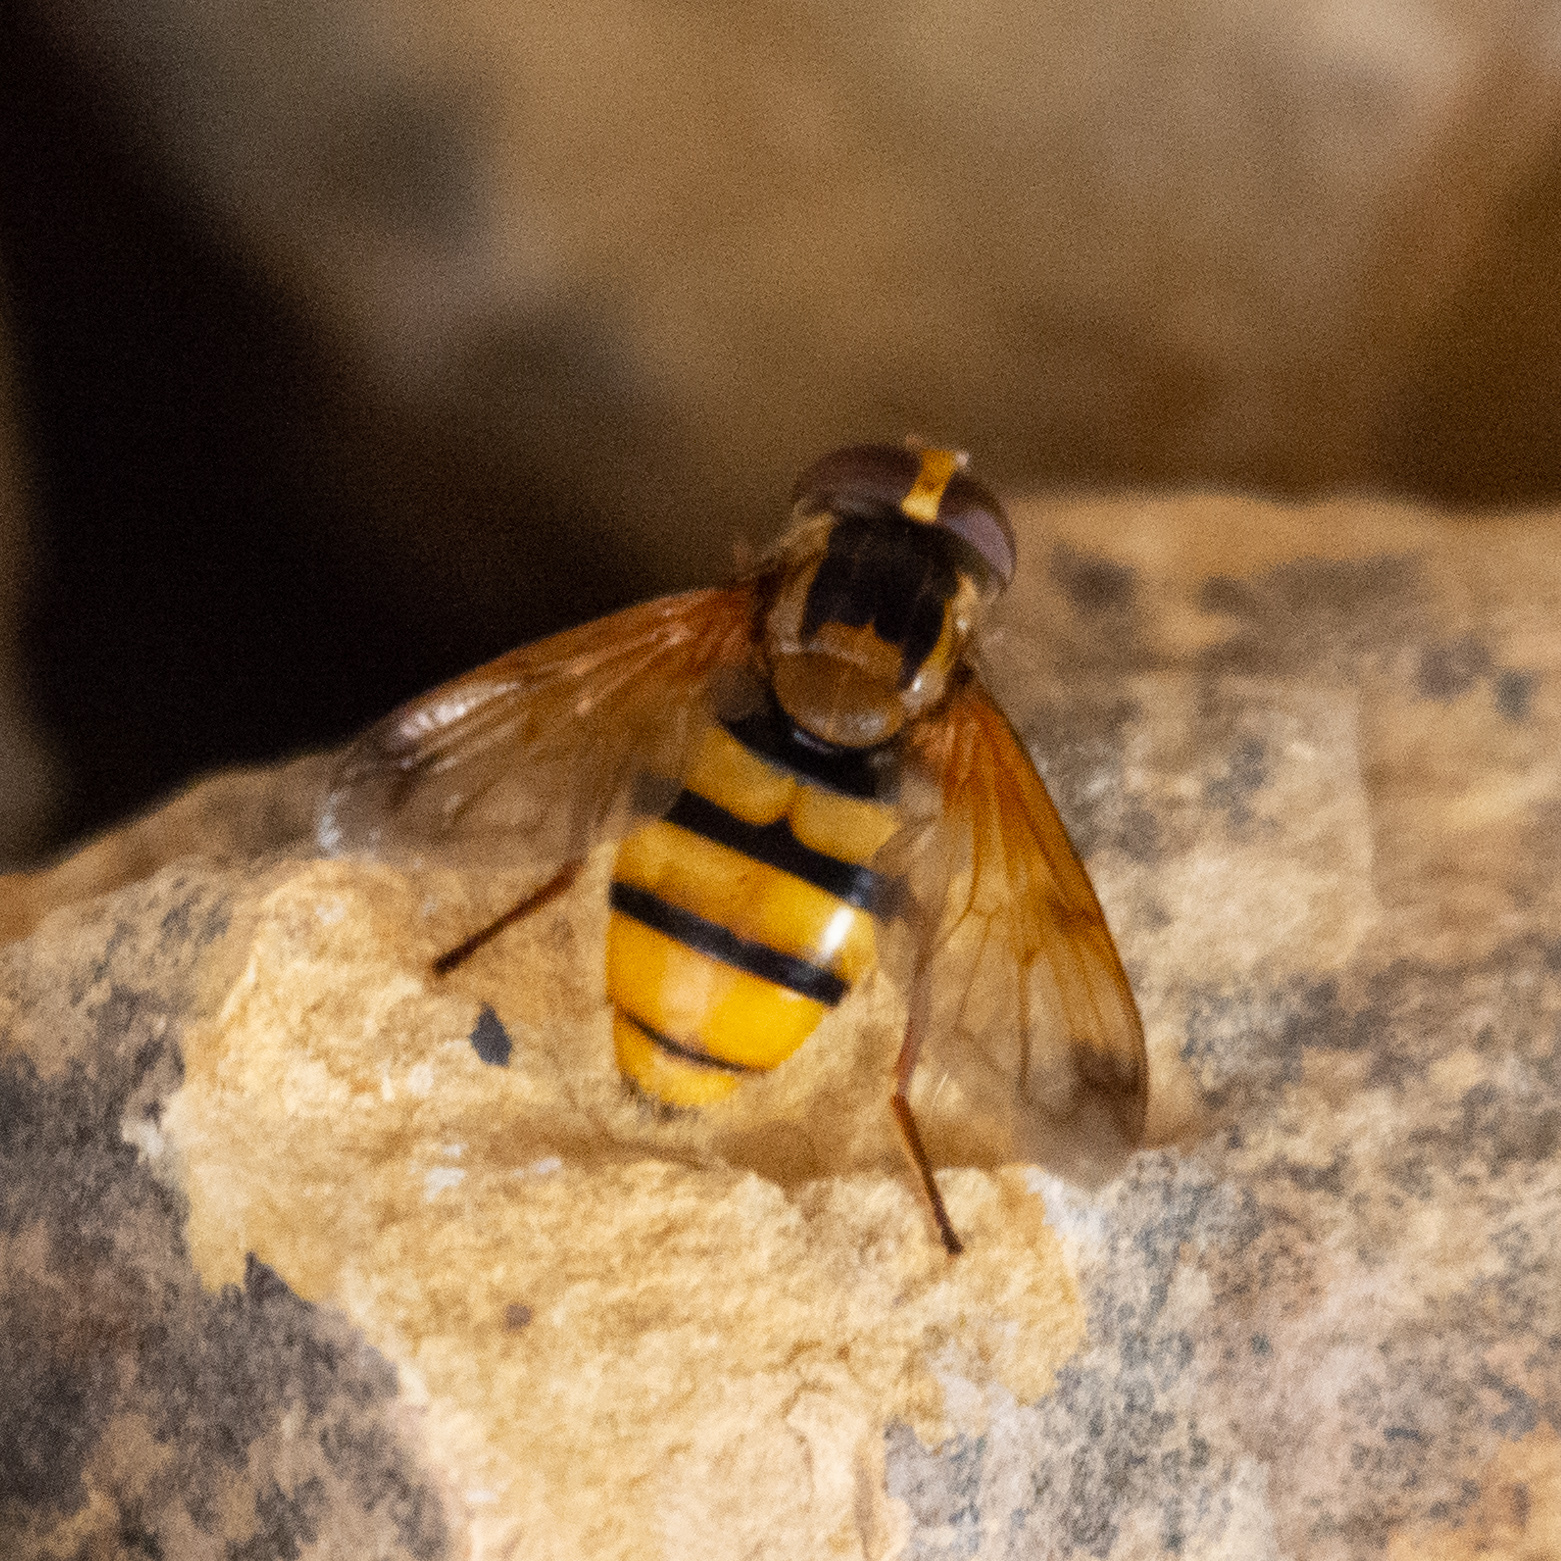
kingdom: Animalia
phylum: Arthropoda
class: Insecta
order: Diptera
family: Syrphidae
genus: Volucella
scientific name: Volucella inanis
